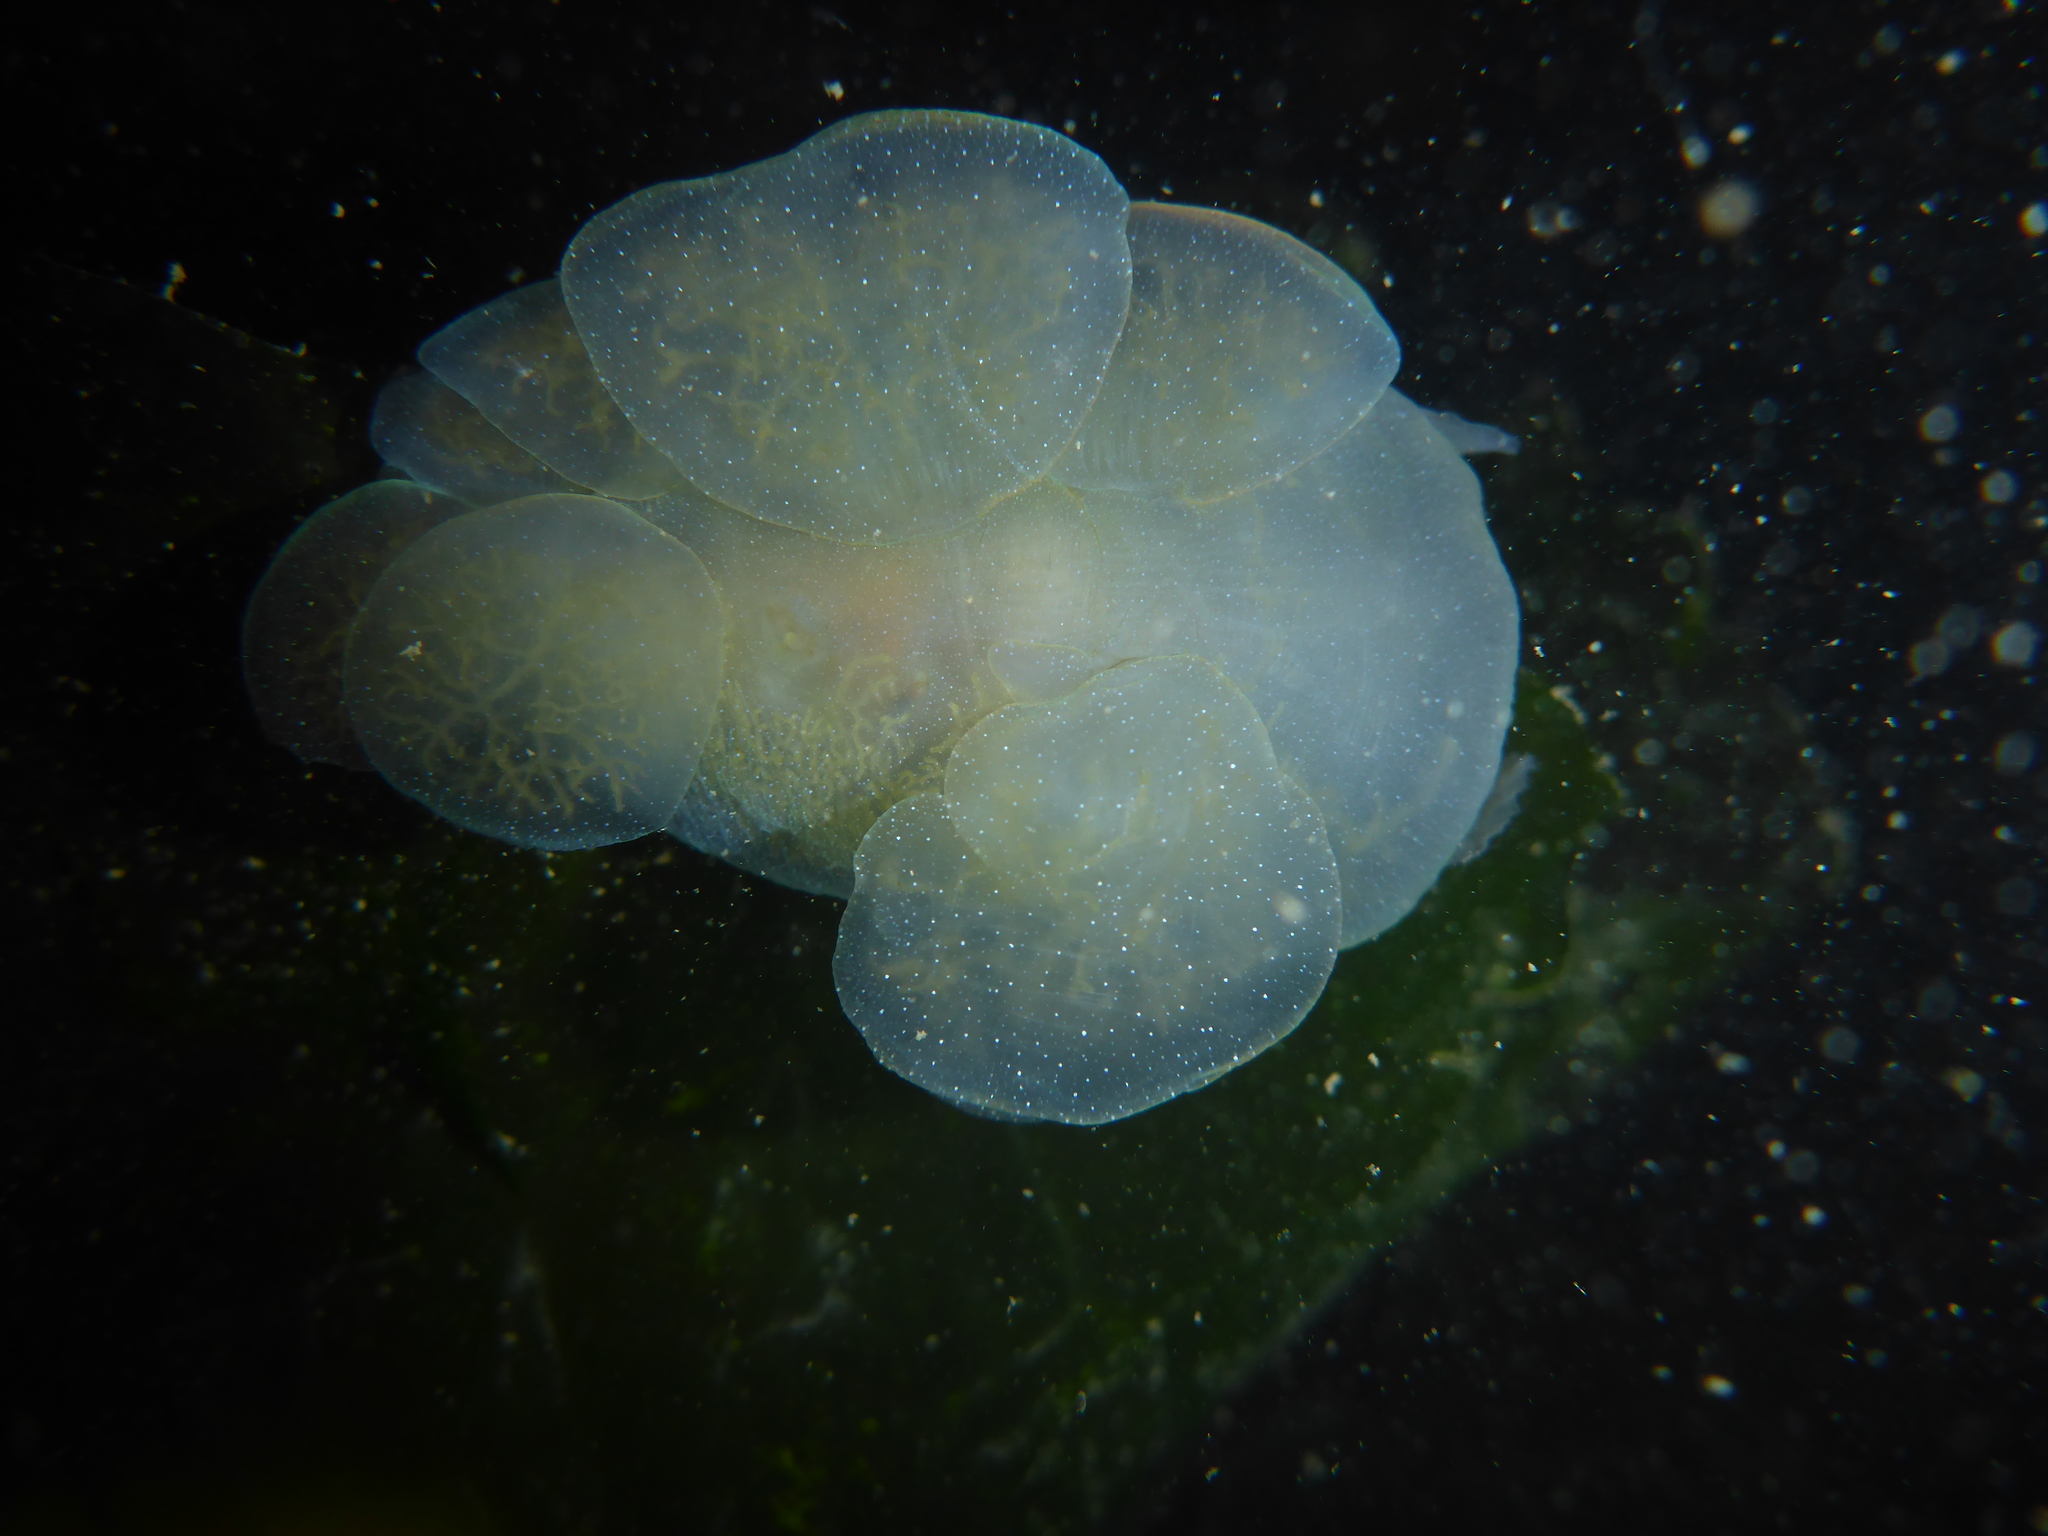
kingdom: Animalia
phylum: Mollusca
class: Gastropoda
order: Nudibranchia
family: Tethydidae
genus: Melibe
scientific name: Melibe leonina
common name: Lion nudibranch
